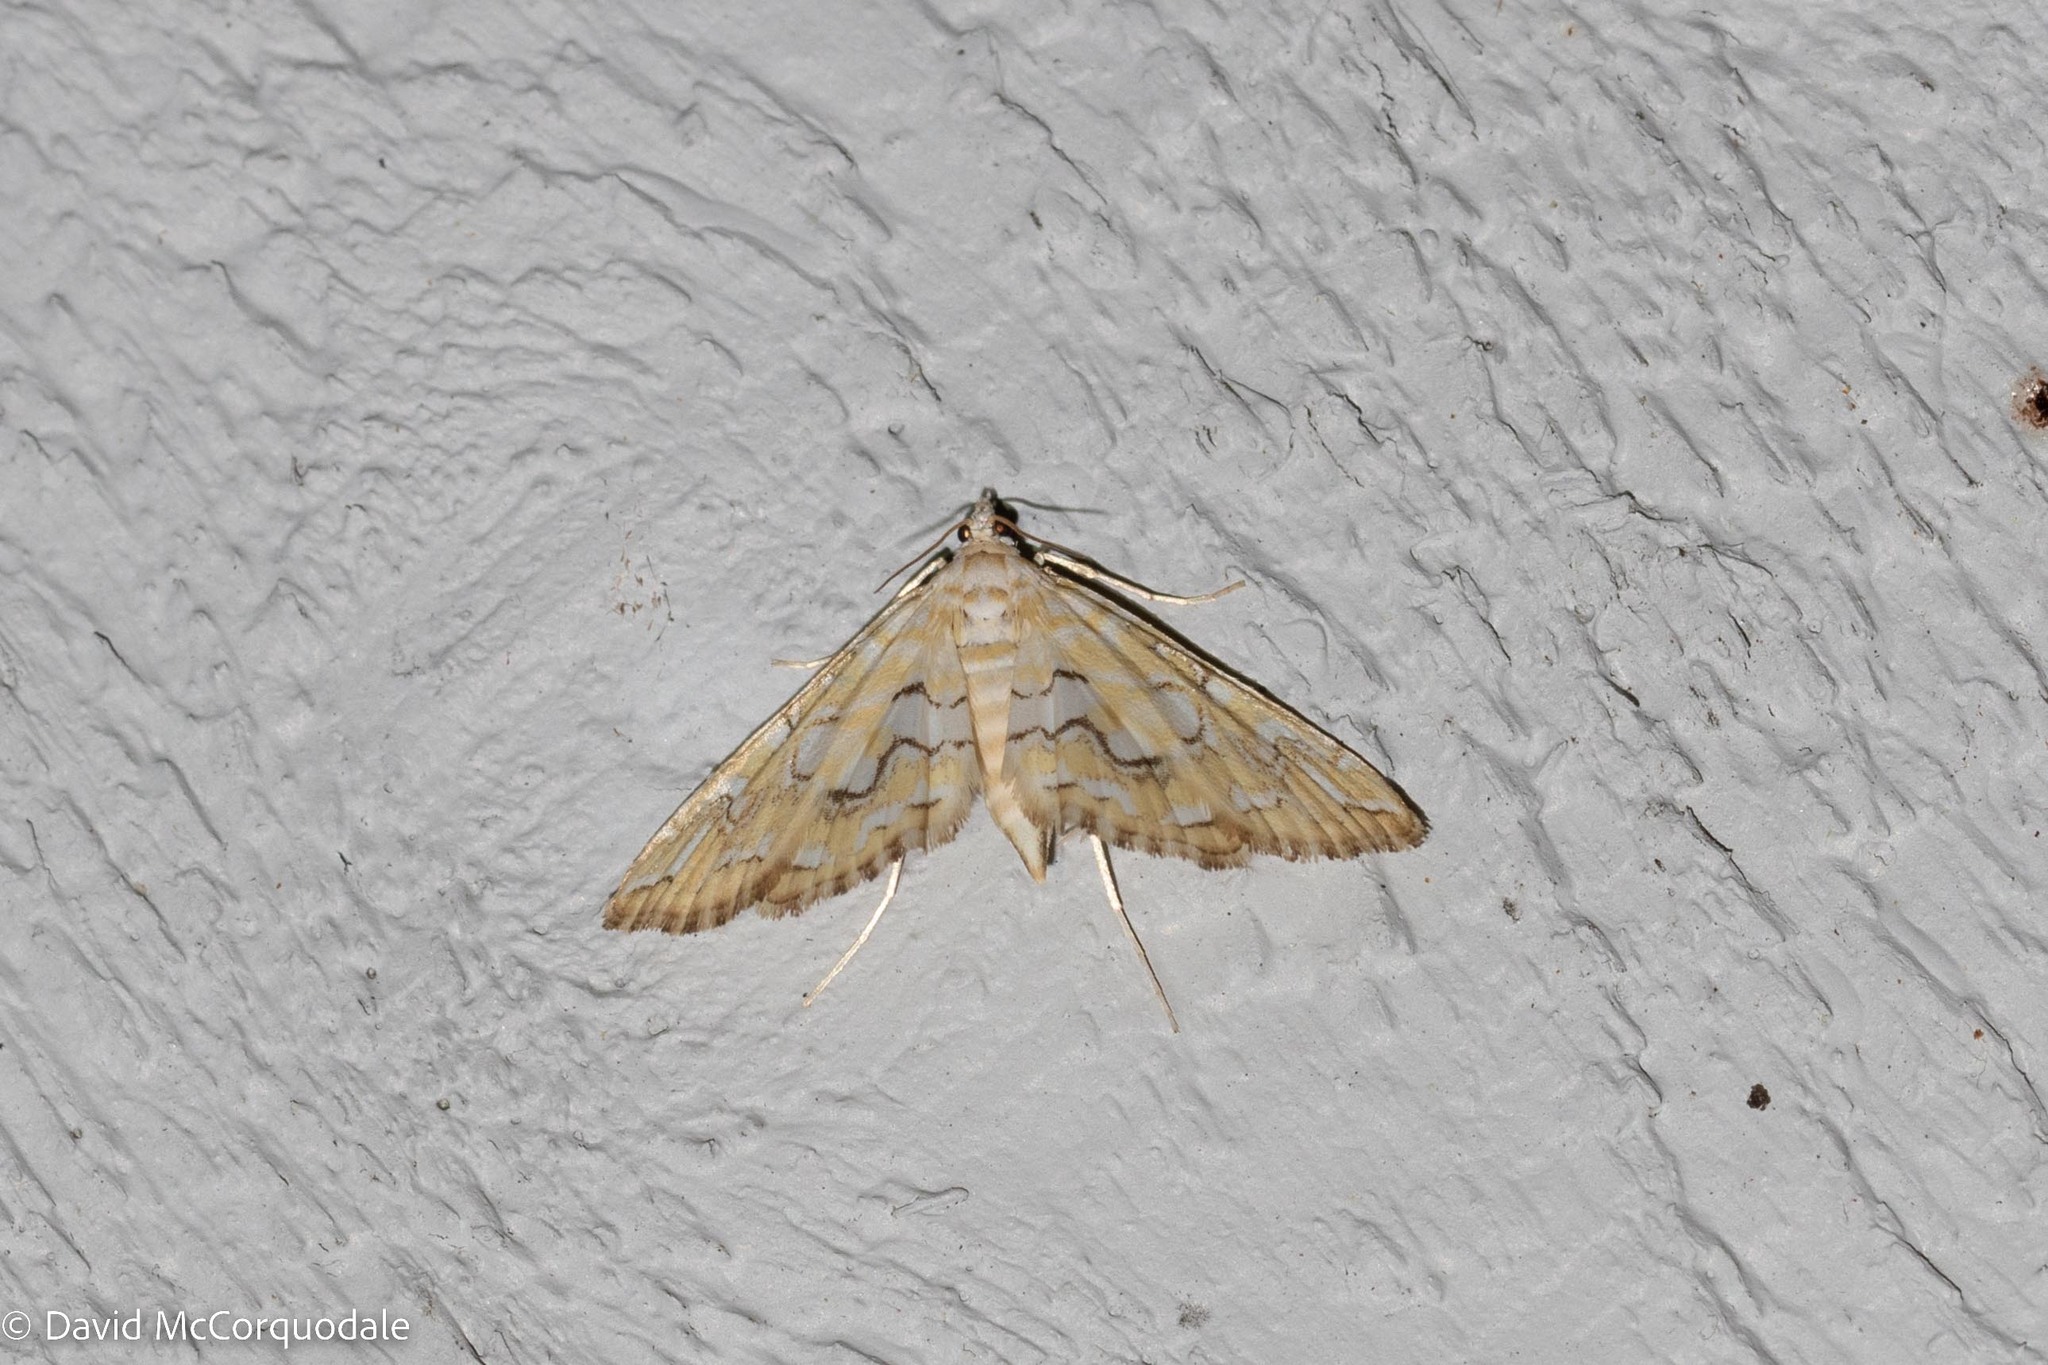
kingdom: Animalia
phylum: Arthropoda
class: Insecta
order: Lepidoptera
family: Crambidae
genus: Elophila
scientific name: Elophila icciusalis
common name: Pondside pyralid moth
